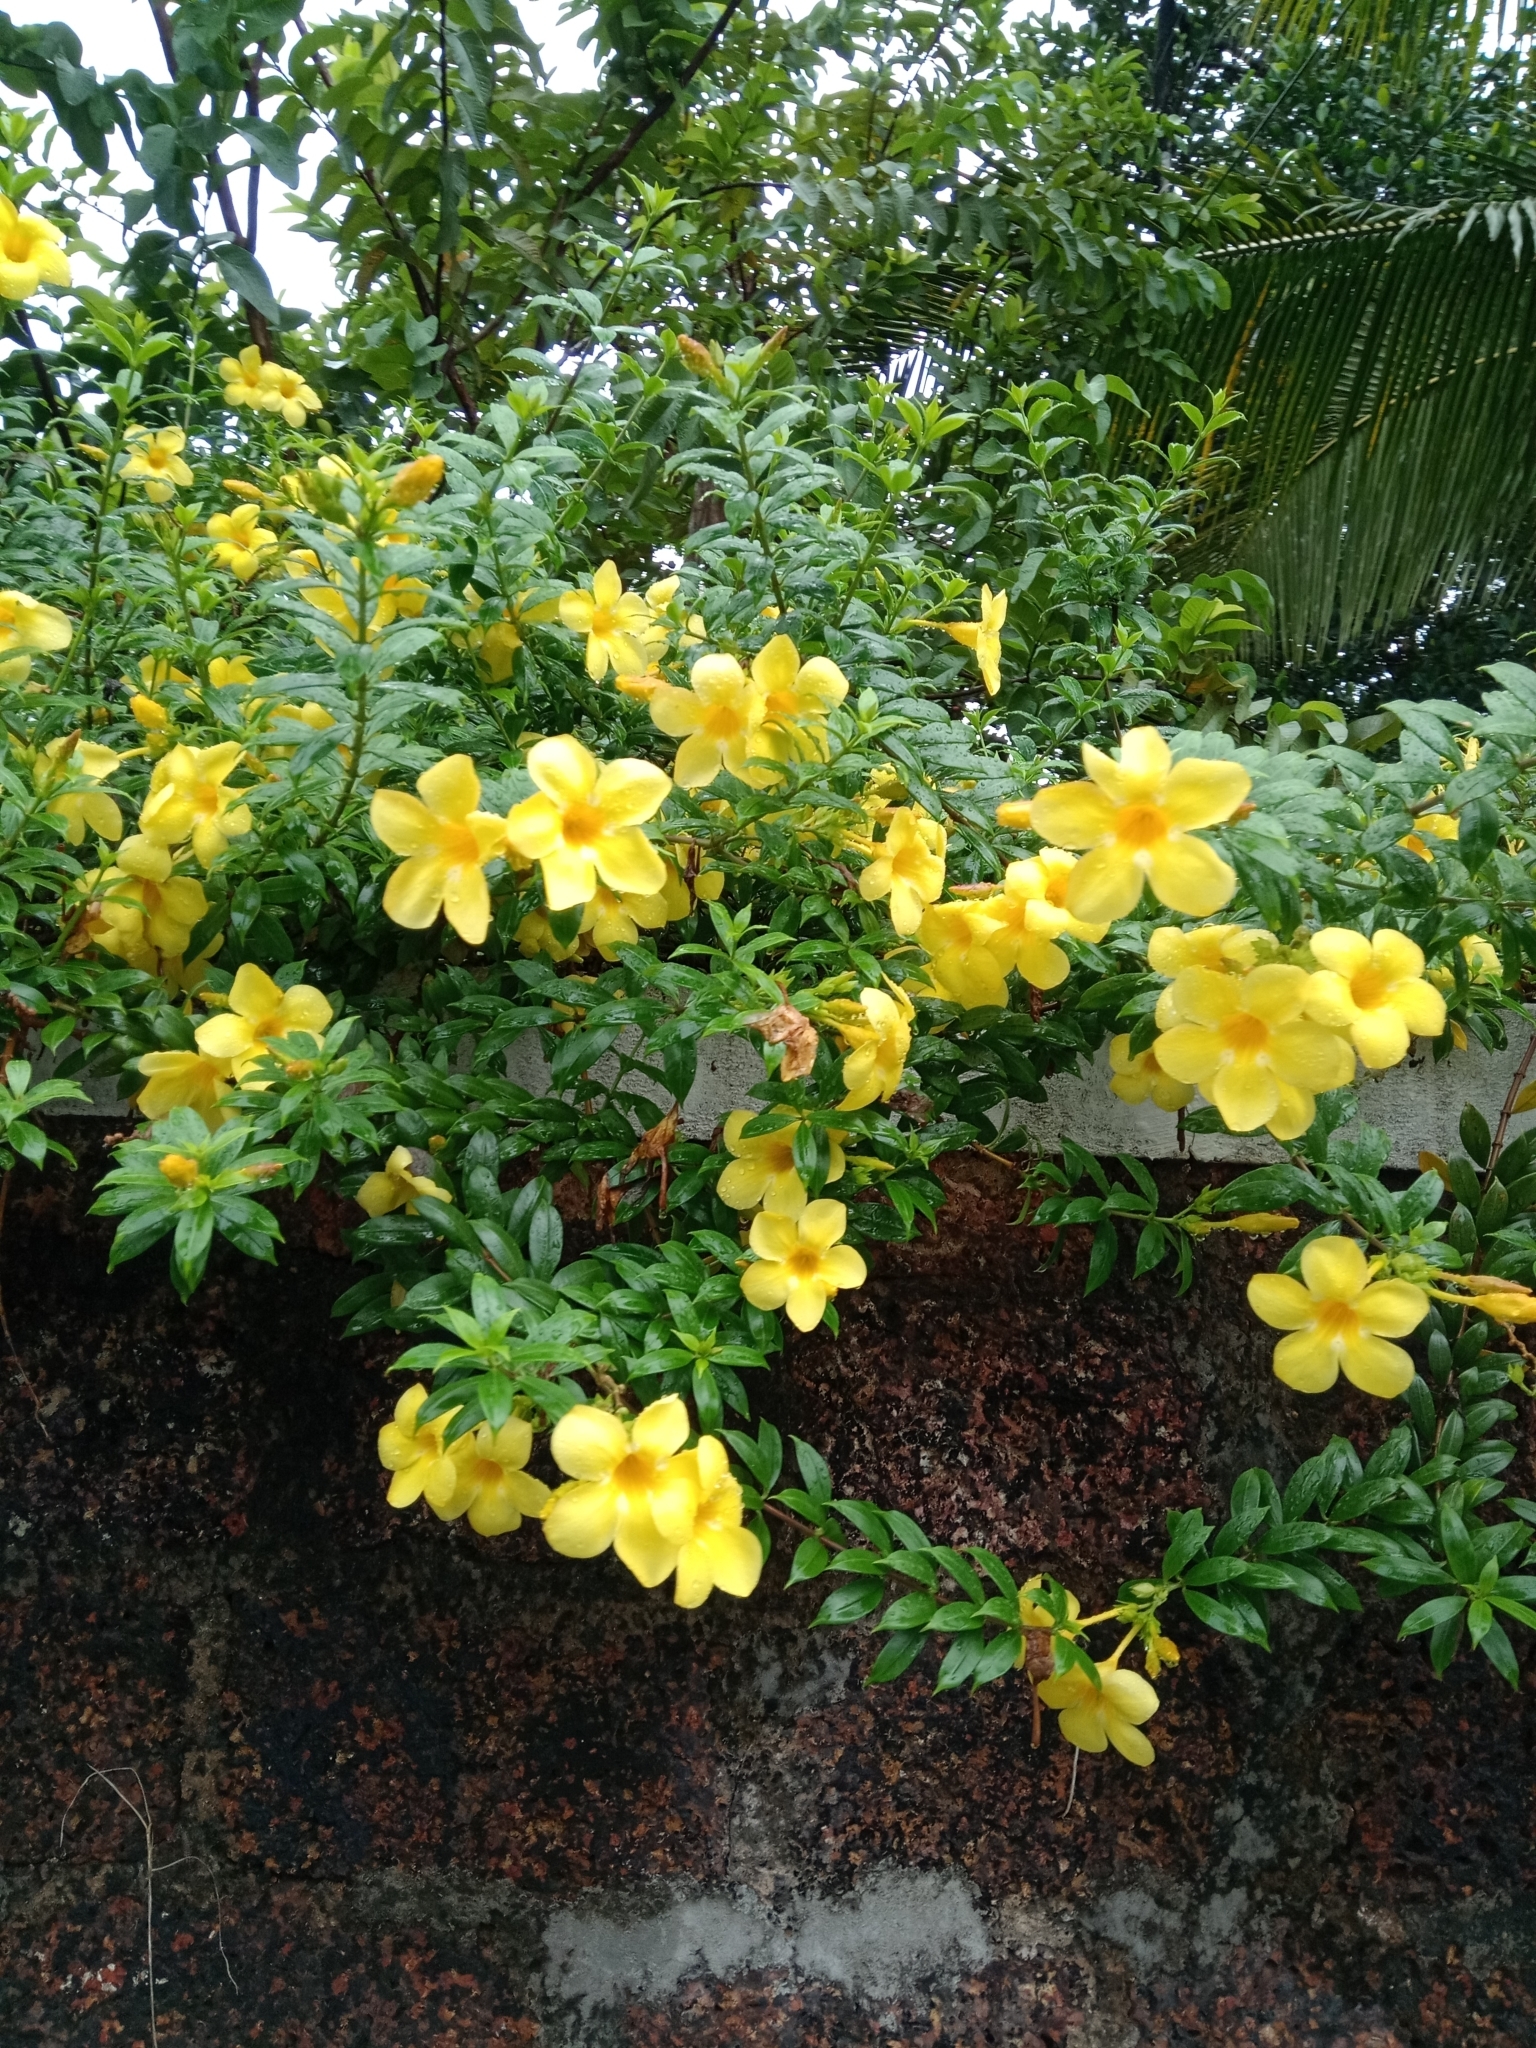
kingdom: Plantae
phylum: Tracheophyta
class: Magnoliopsida
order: Gentianales
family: Apocynaceae
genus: Allamanda
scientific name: Allamanda cathartica
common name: Golden trumpet
